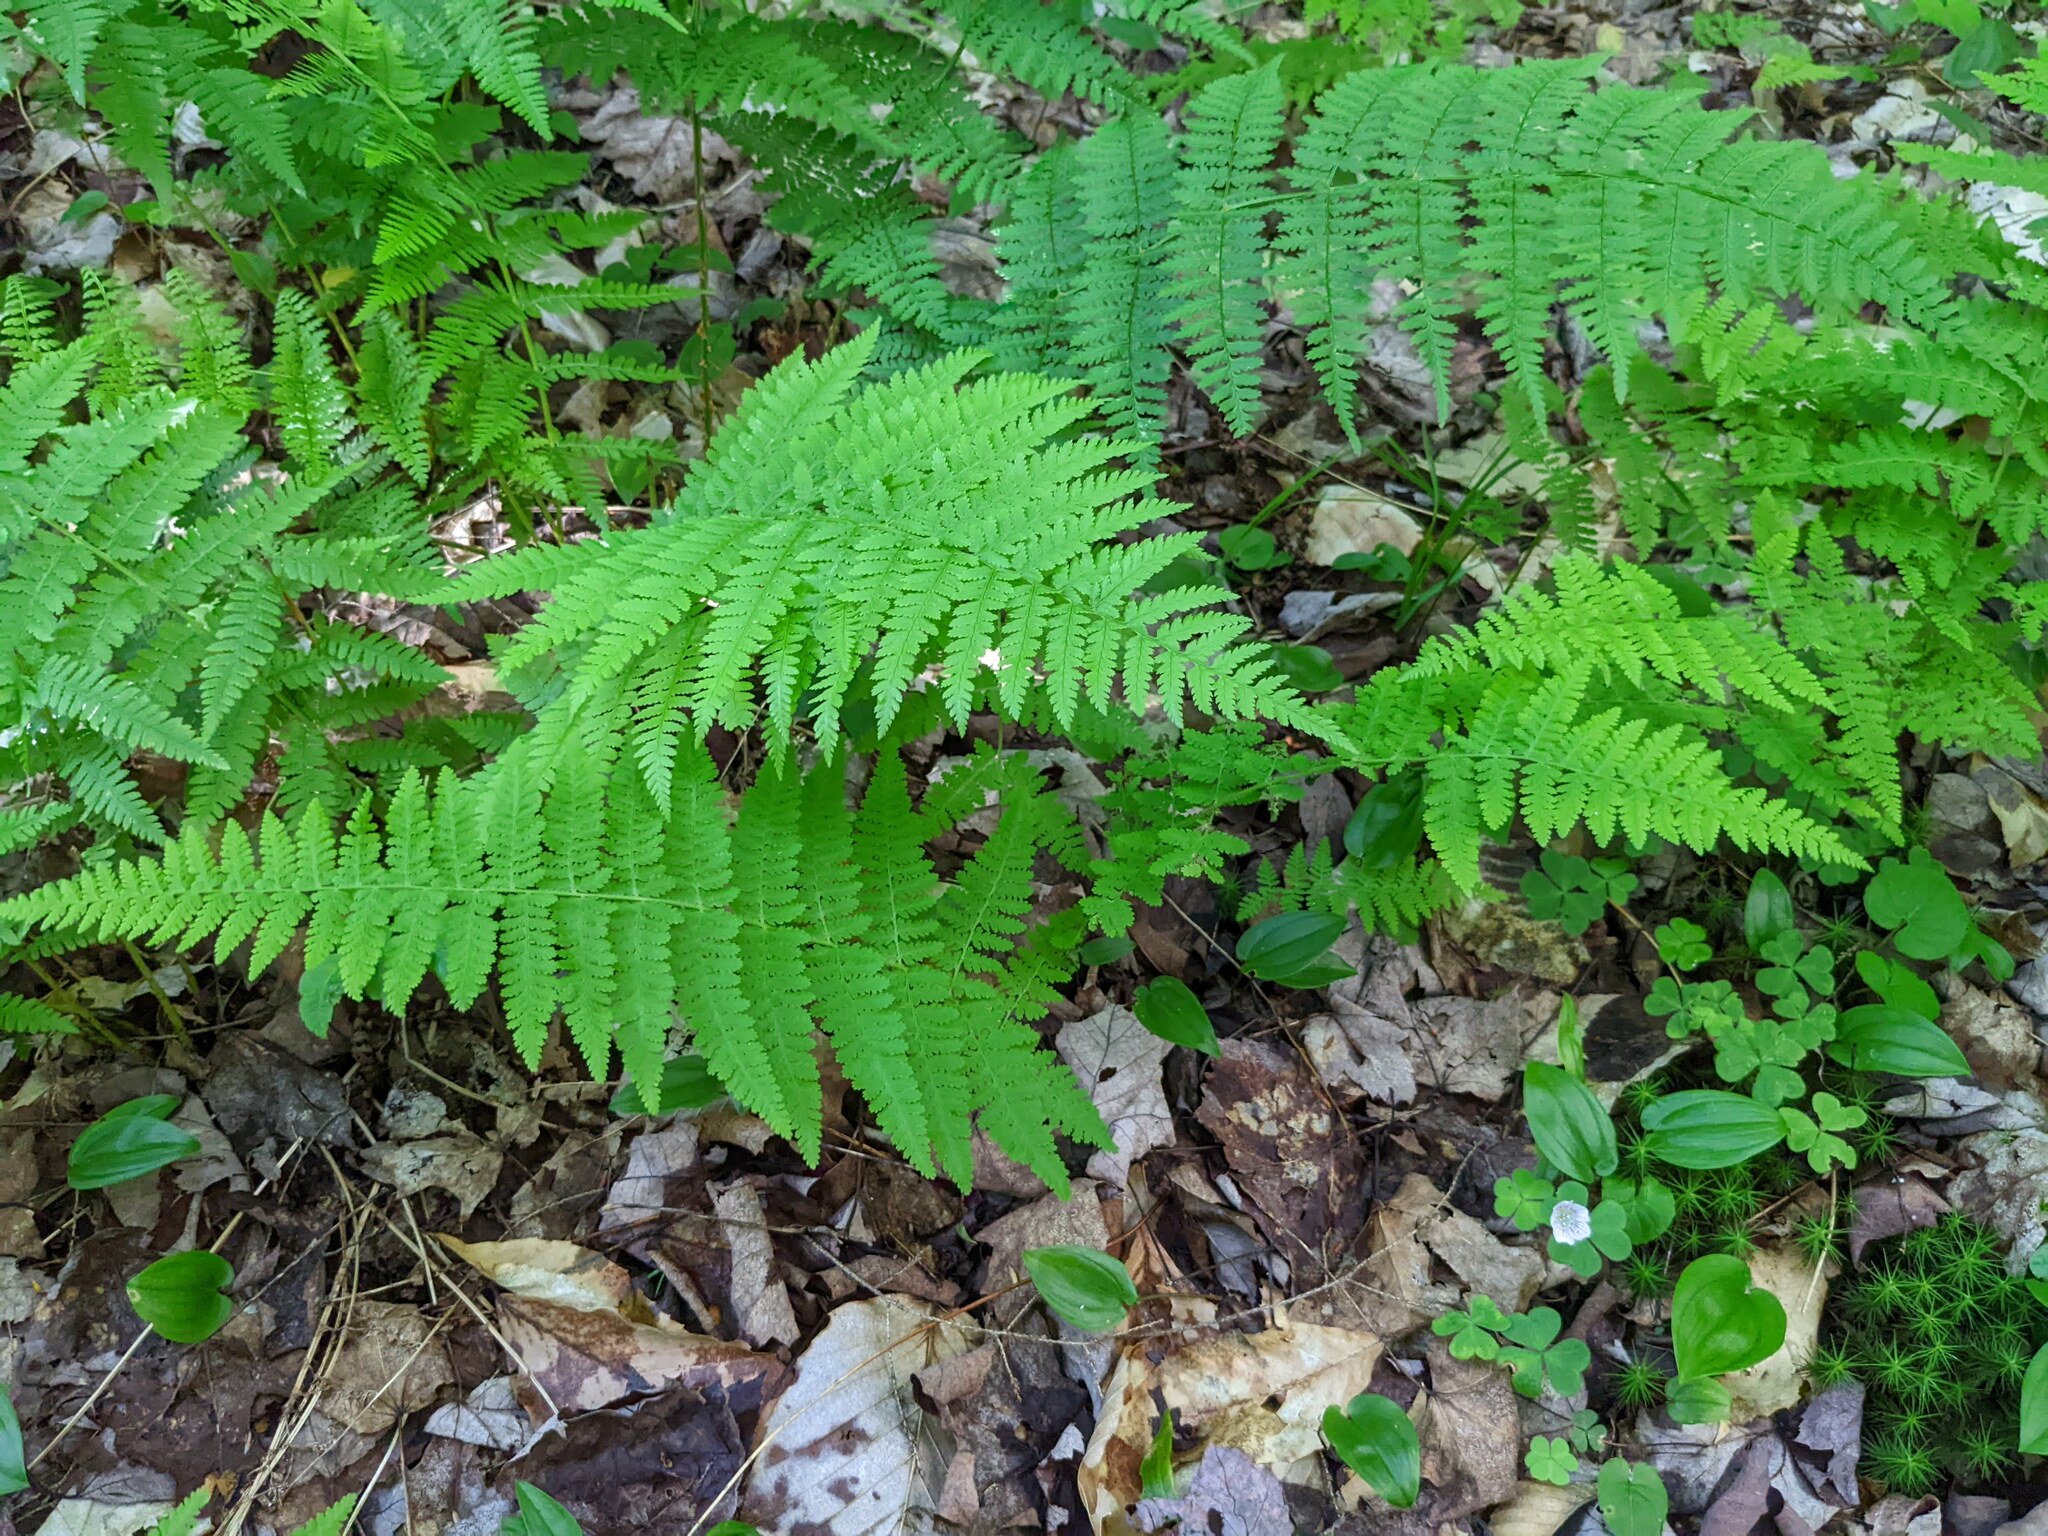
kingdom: Plantae
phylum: Tracheophyta
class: Polypodiopsida
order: Polypodiales
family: Dennstaedtiaceae
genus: Sitobolium
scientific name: Sitobolium punctilobum
